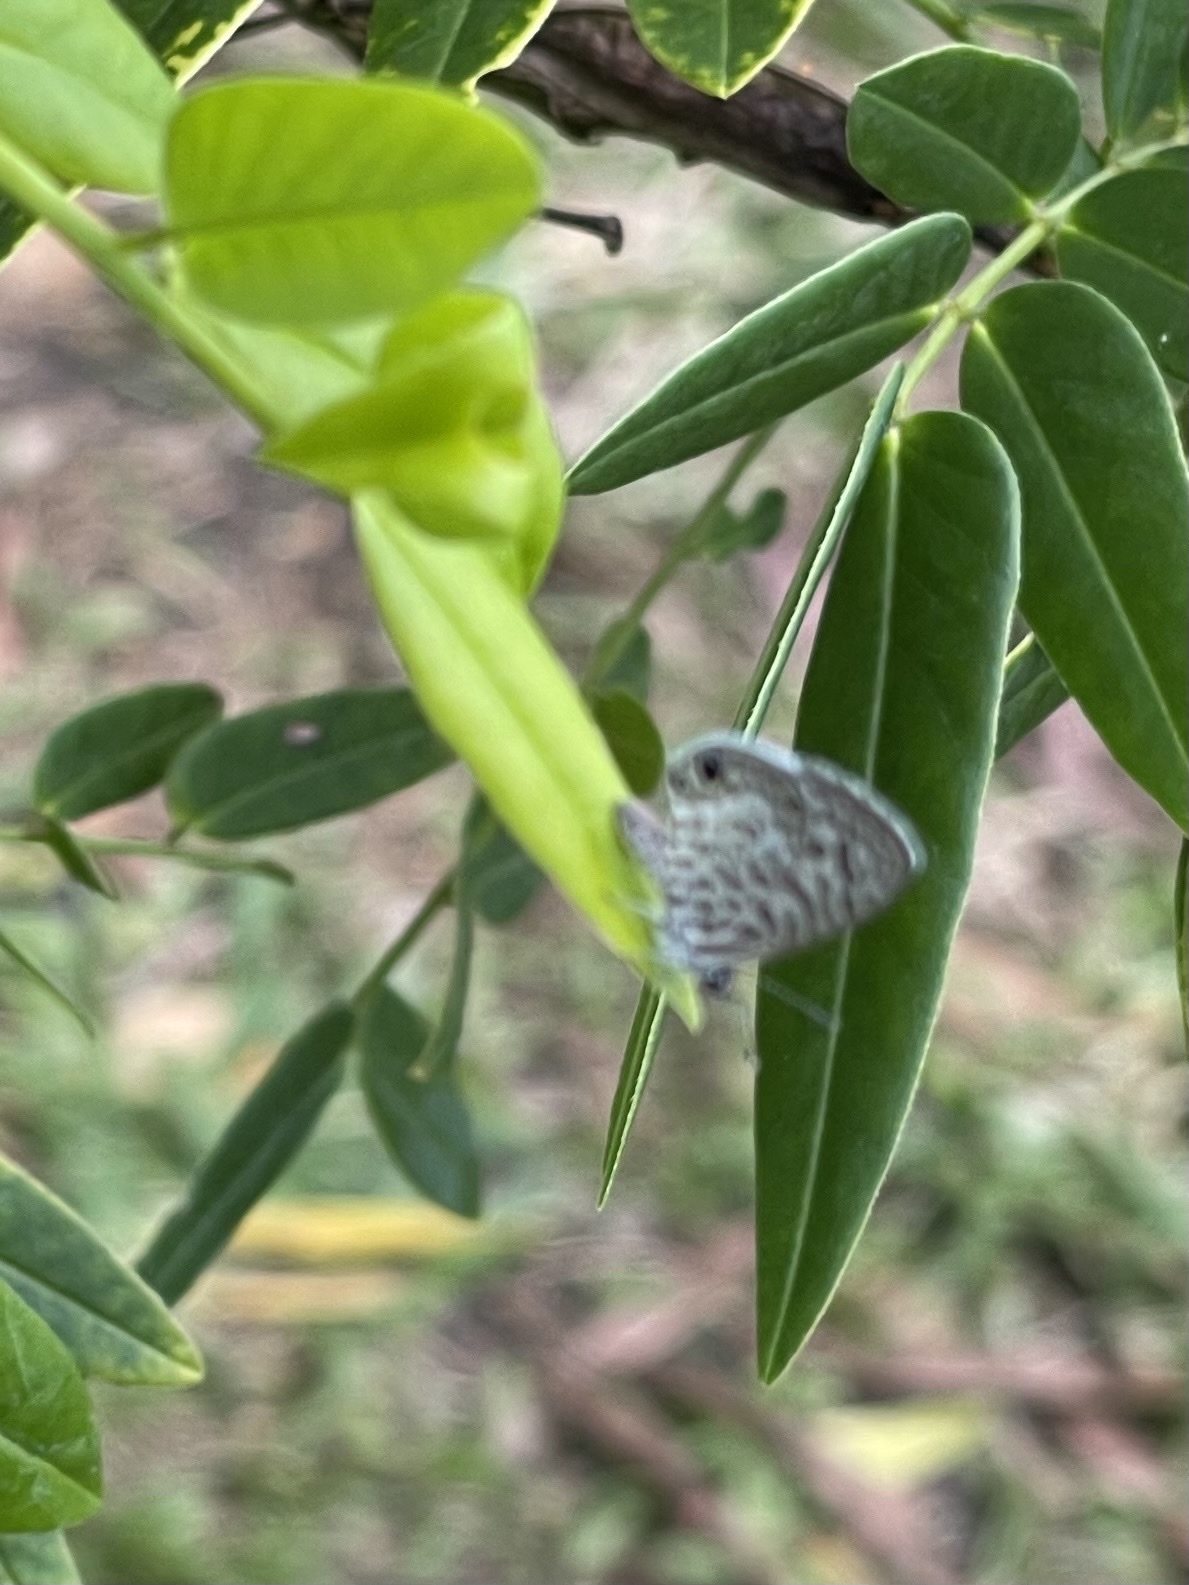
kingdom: Animalia
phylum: Arthropoda
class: Insecta
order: Lepidoptera
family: Lycaenidae
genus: Leptotes
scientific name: Leptotes cassius
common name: Cassius blue
